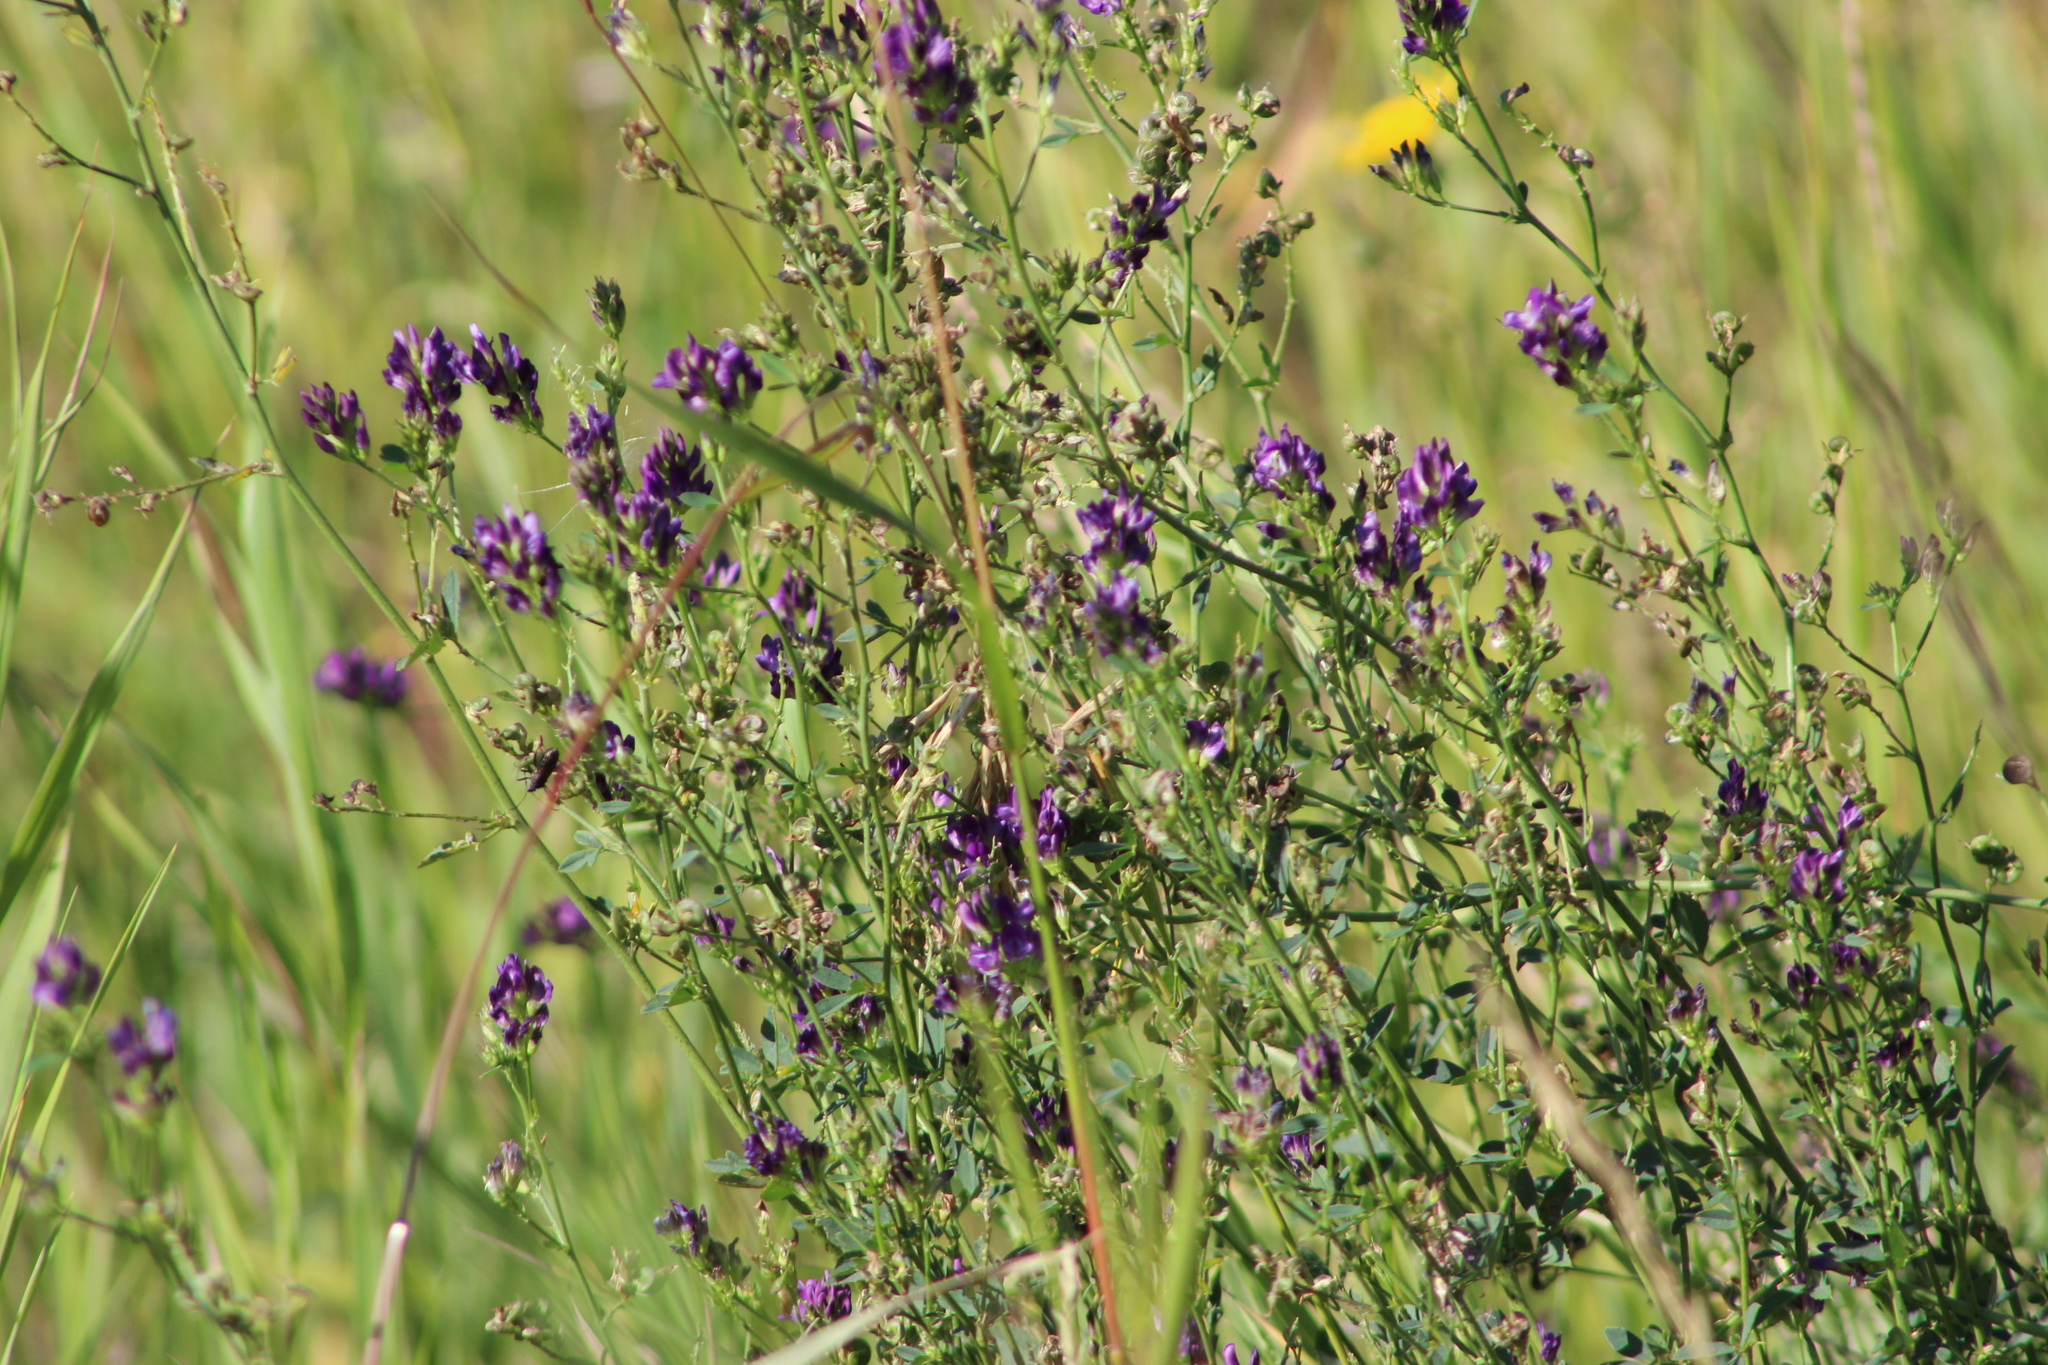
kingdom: Plantae
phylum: Tracheophyta
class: Magnoliopsida
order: Fabales
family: Fabaceae
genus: Medicago
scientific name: Medicago varia
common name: Sand lucerne
